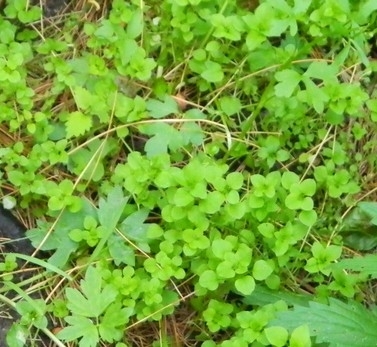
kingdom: Plantae
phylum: Tracheophyta
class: Magnoliopsida
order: Caryophyllales
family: Caryophyllaceae
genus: Stellaria
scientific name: Stellaria media
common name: Common chickweed
